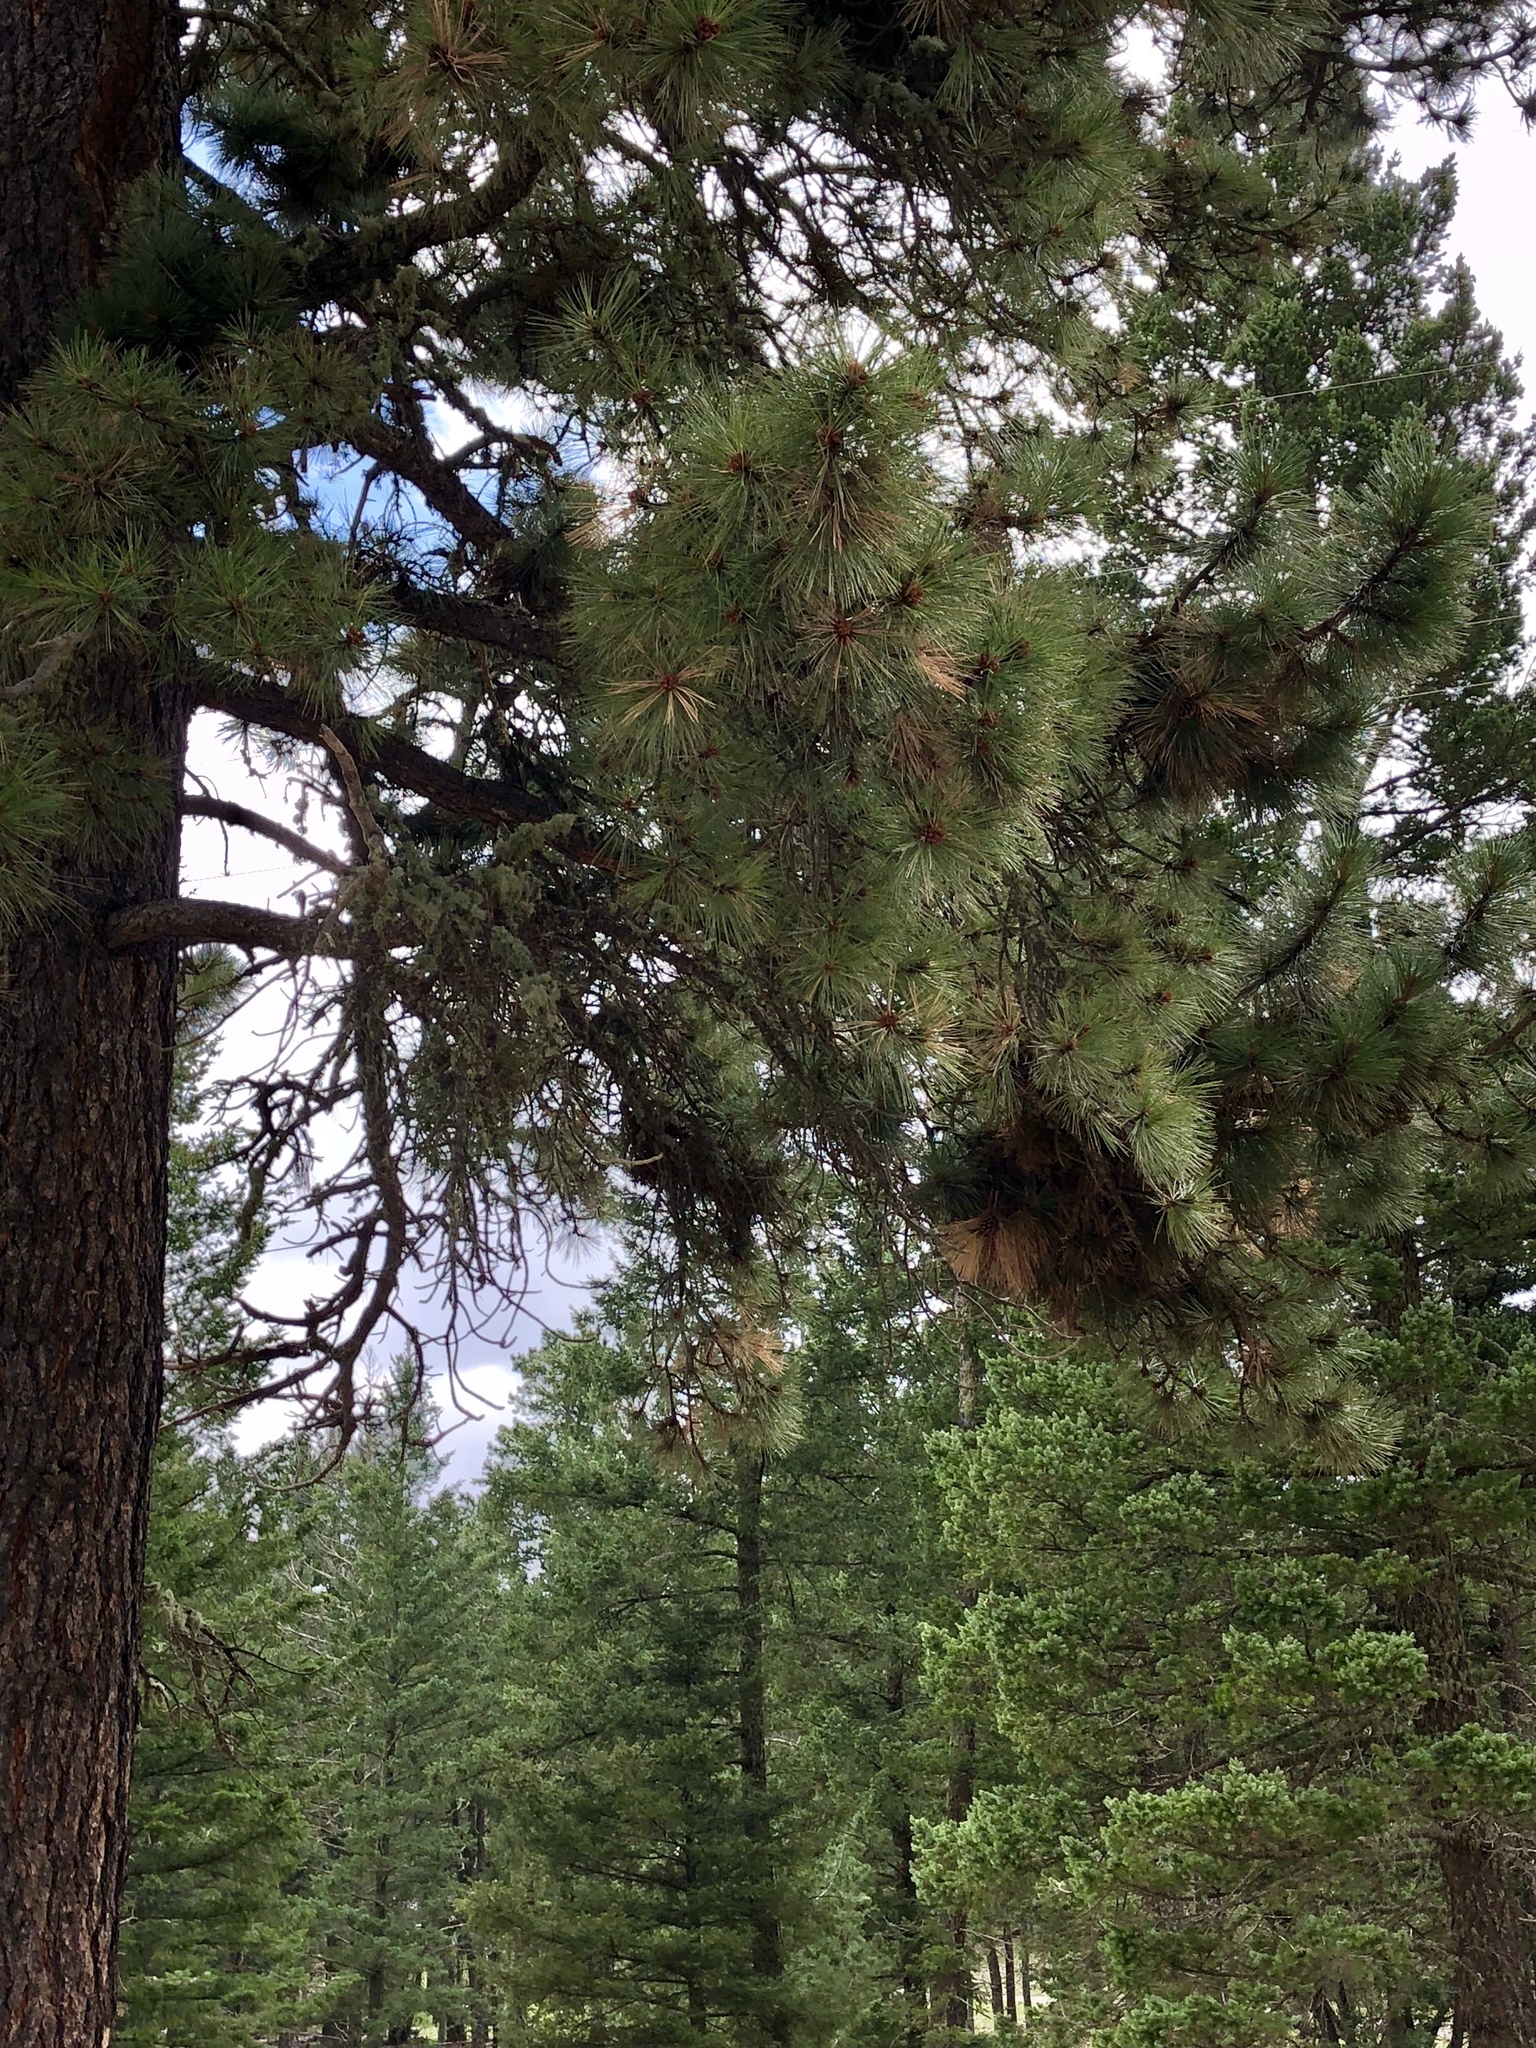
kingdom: Plantae
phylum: Tracheophyta
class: Pinopsida
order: Pinales
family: Pinaceae
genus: Pinus
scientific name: Pinus ponderosa
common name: Western yellow-pine
